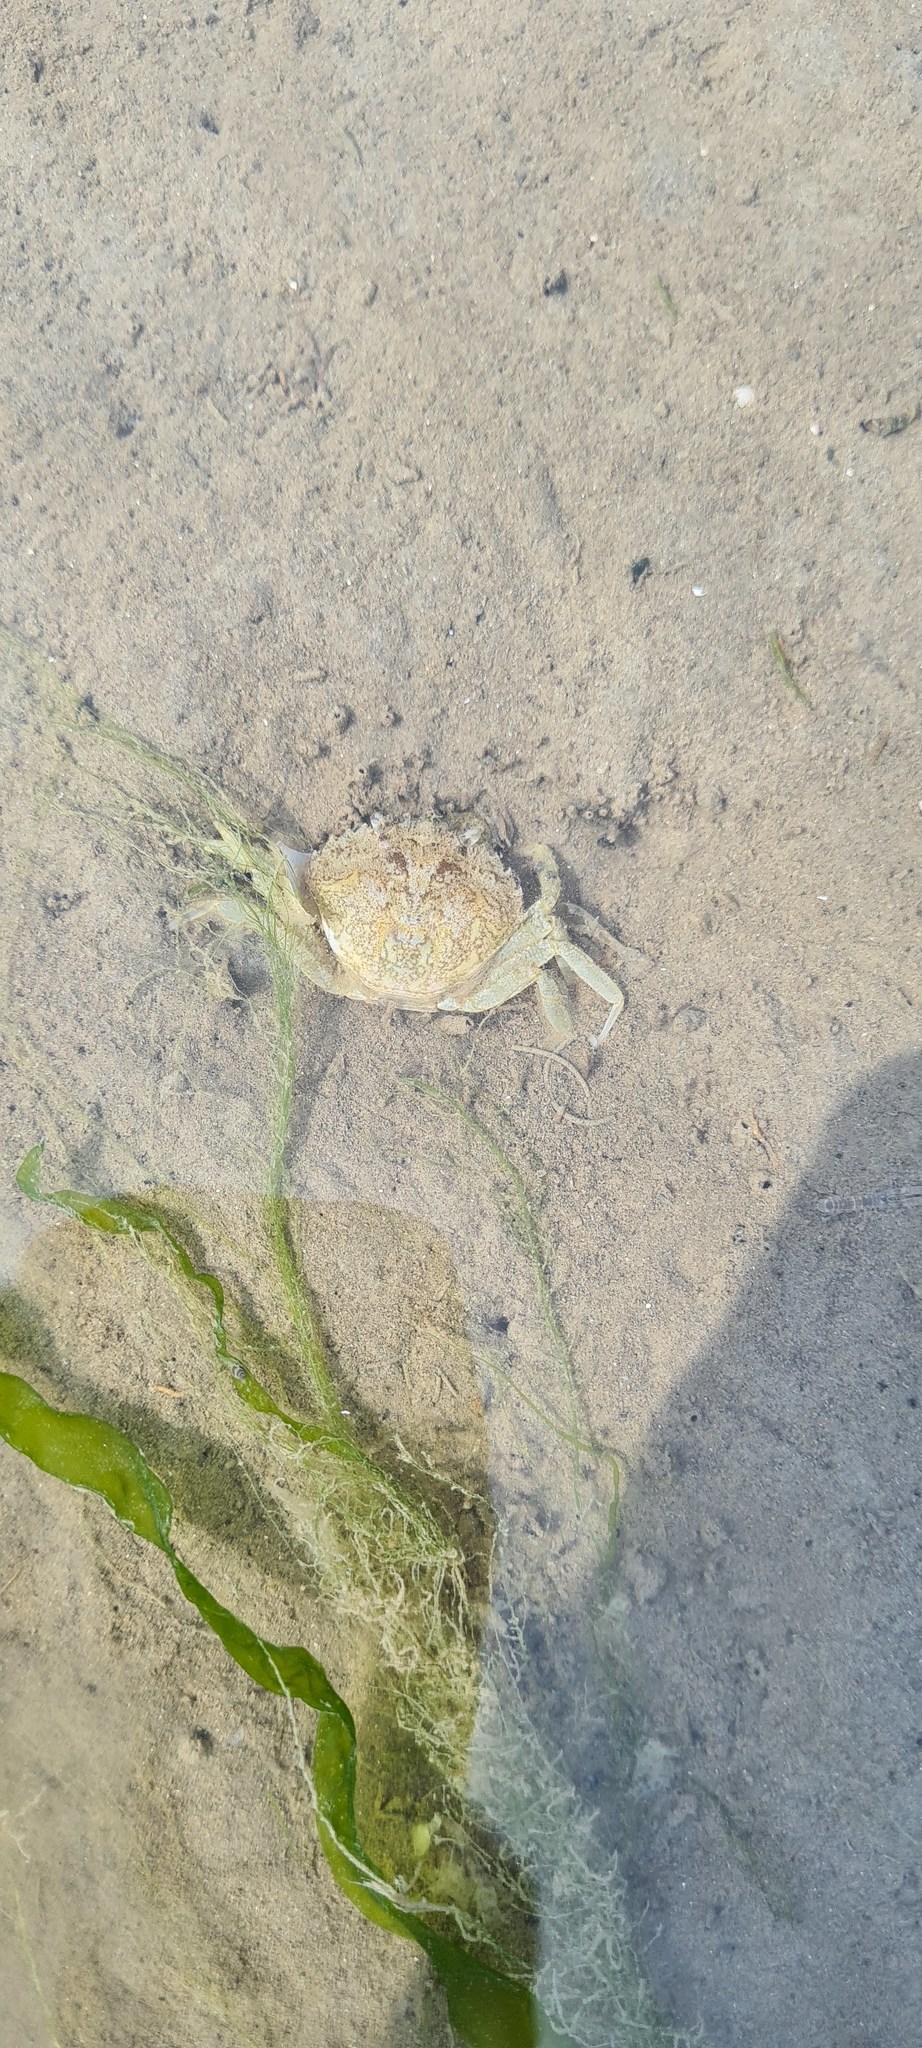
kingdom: Animalia
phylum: Arthropoda
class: Malacostraca
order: Decapoda
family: Carcinidae
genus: Carcinus
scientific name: Carcinus maenas
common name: European green crab
